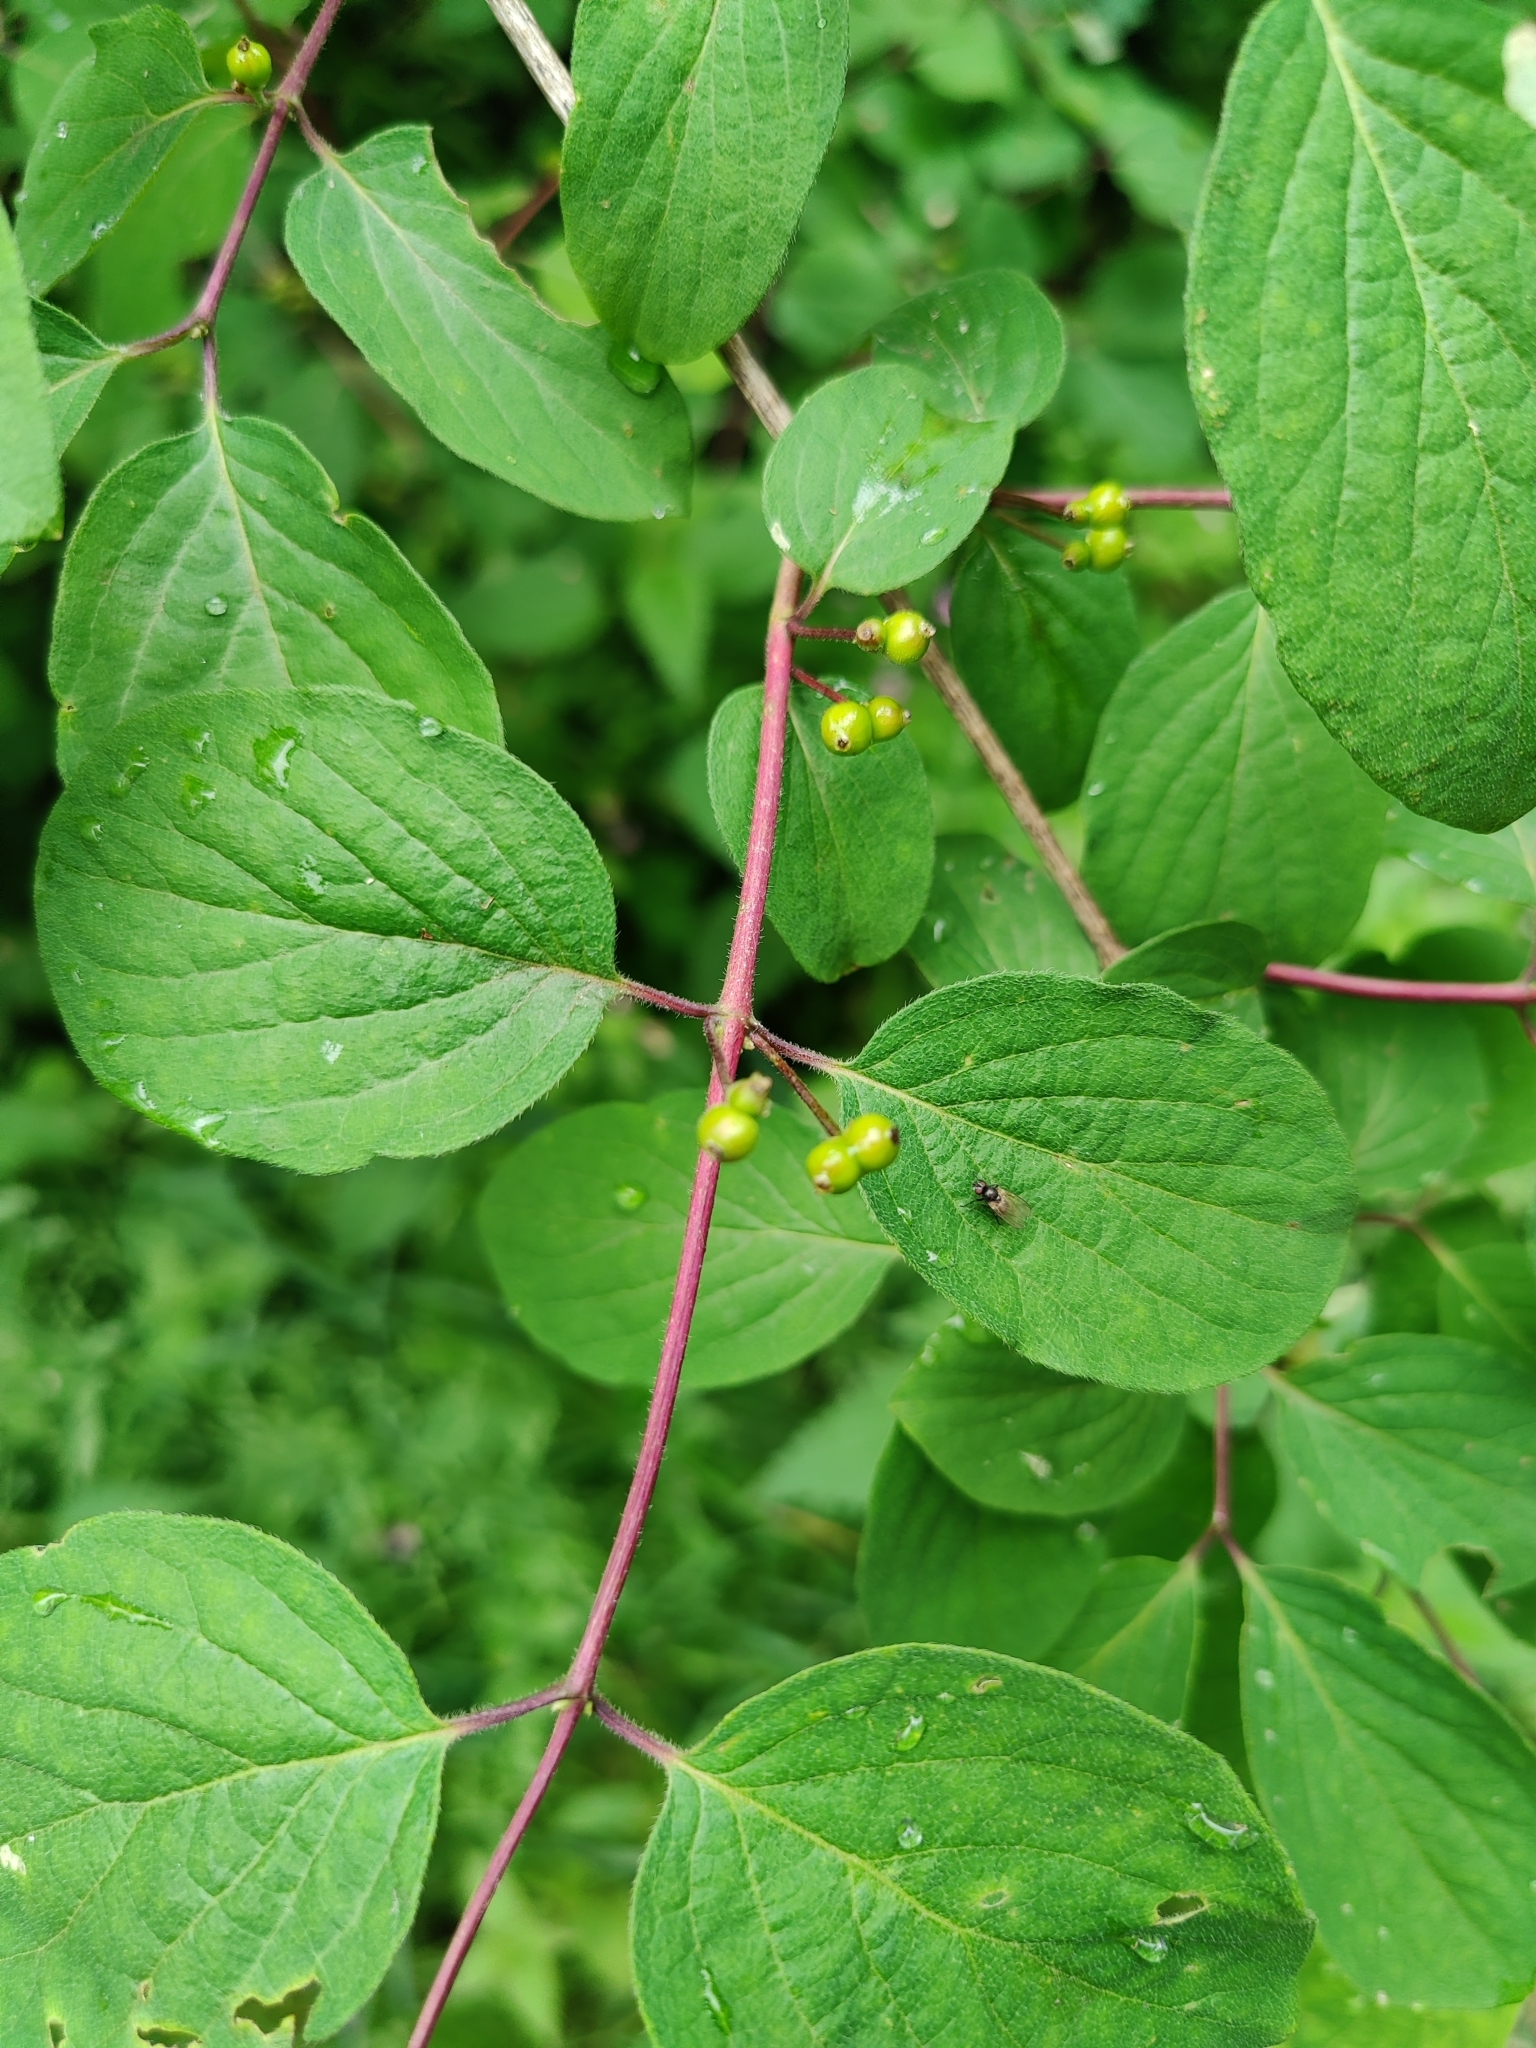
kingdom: Plantae
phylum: Tracheophyta
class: Magnoliopsida
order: Dipsacales
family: Caprifoliaceae
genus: Lonicera
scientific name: Lonicera xylosteum
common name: Fly honeysuckle
